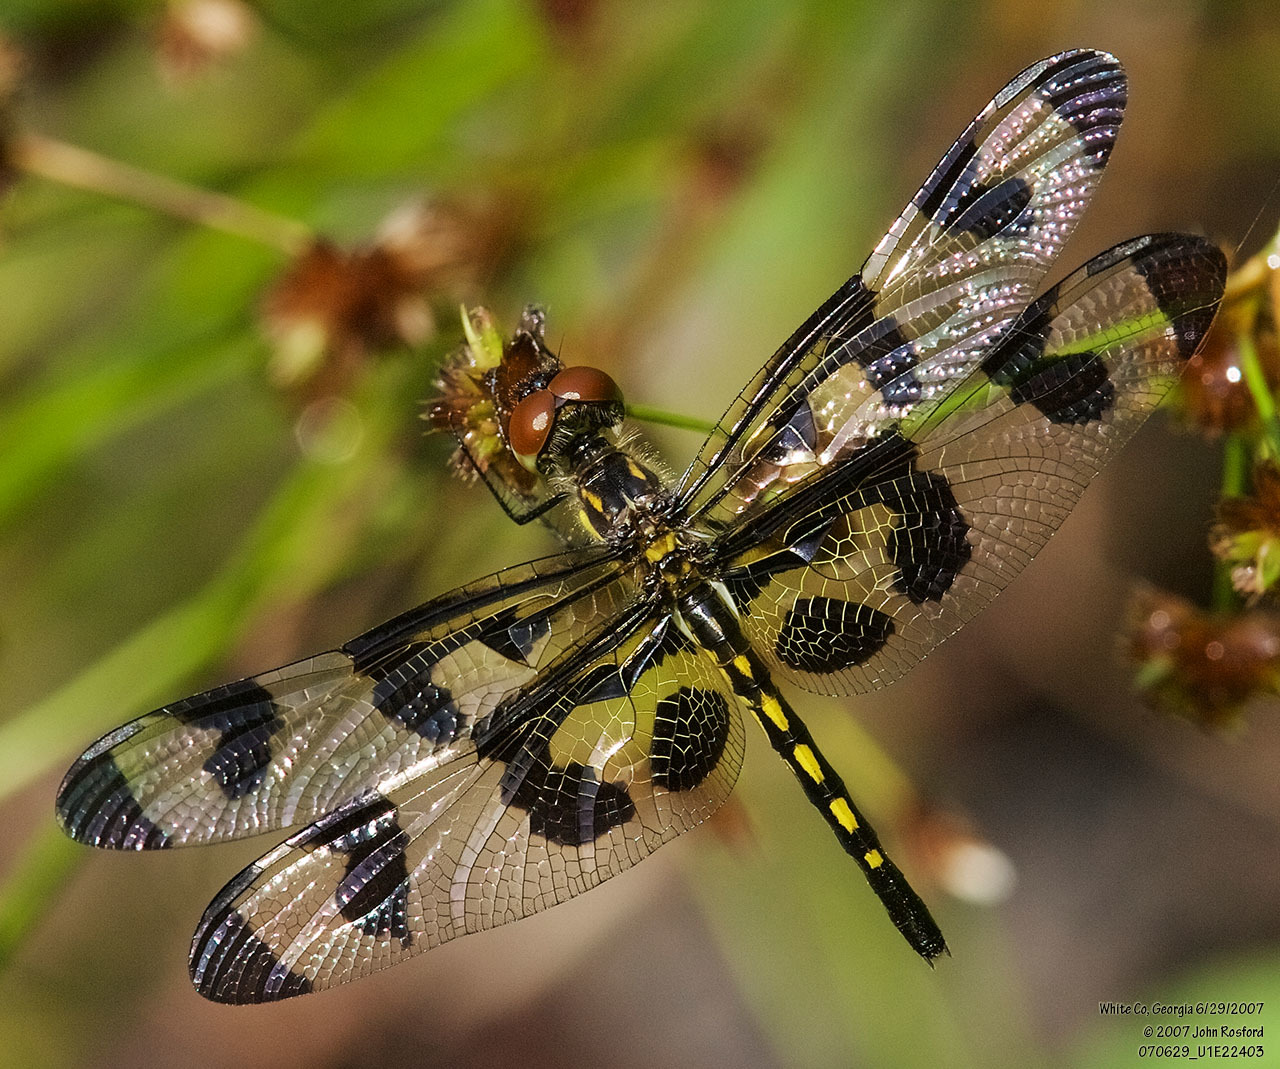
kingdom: Animalia
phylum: Arthropoda
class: Insecta
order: Odonata
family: Libellulidae
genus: Celithemis
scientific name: Celithemis fasciata
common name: Banded pennant
